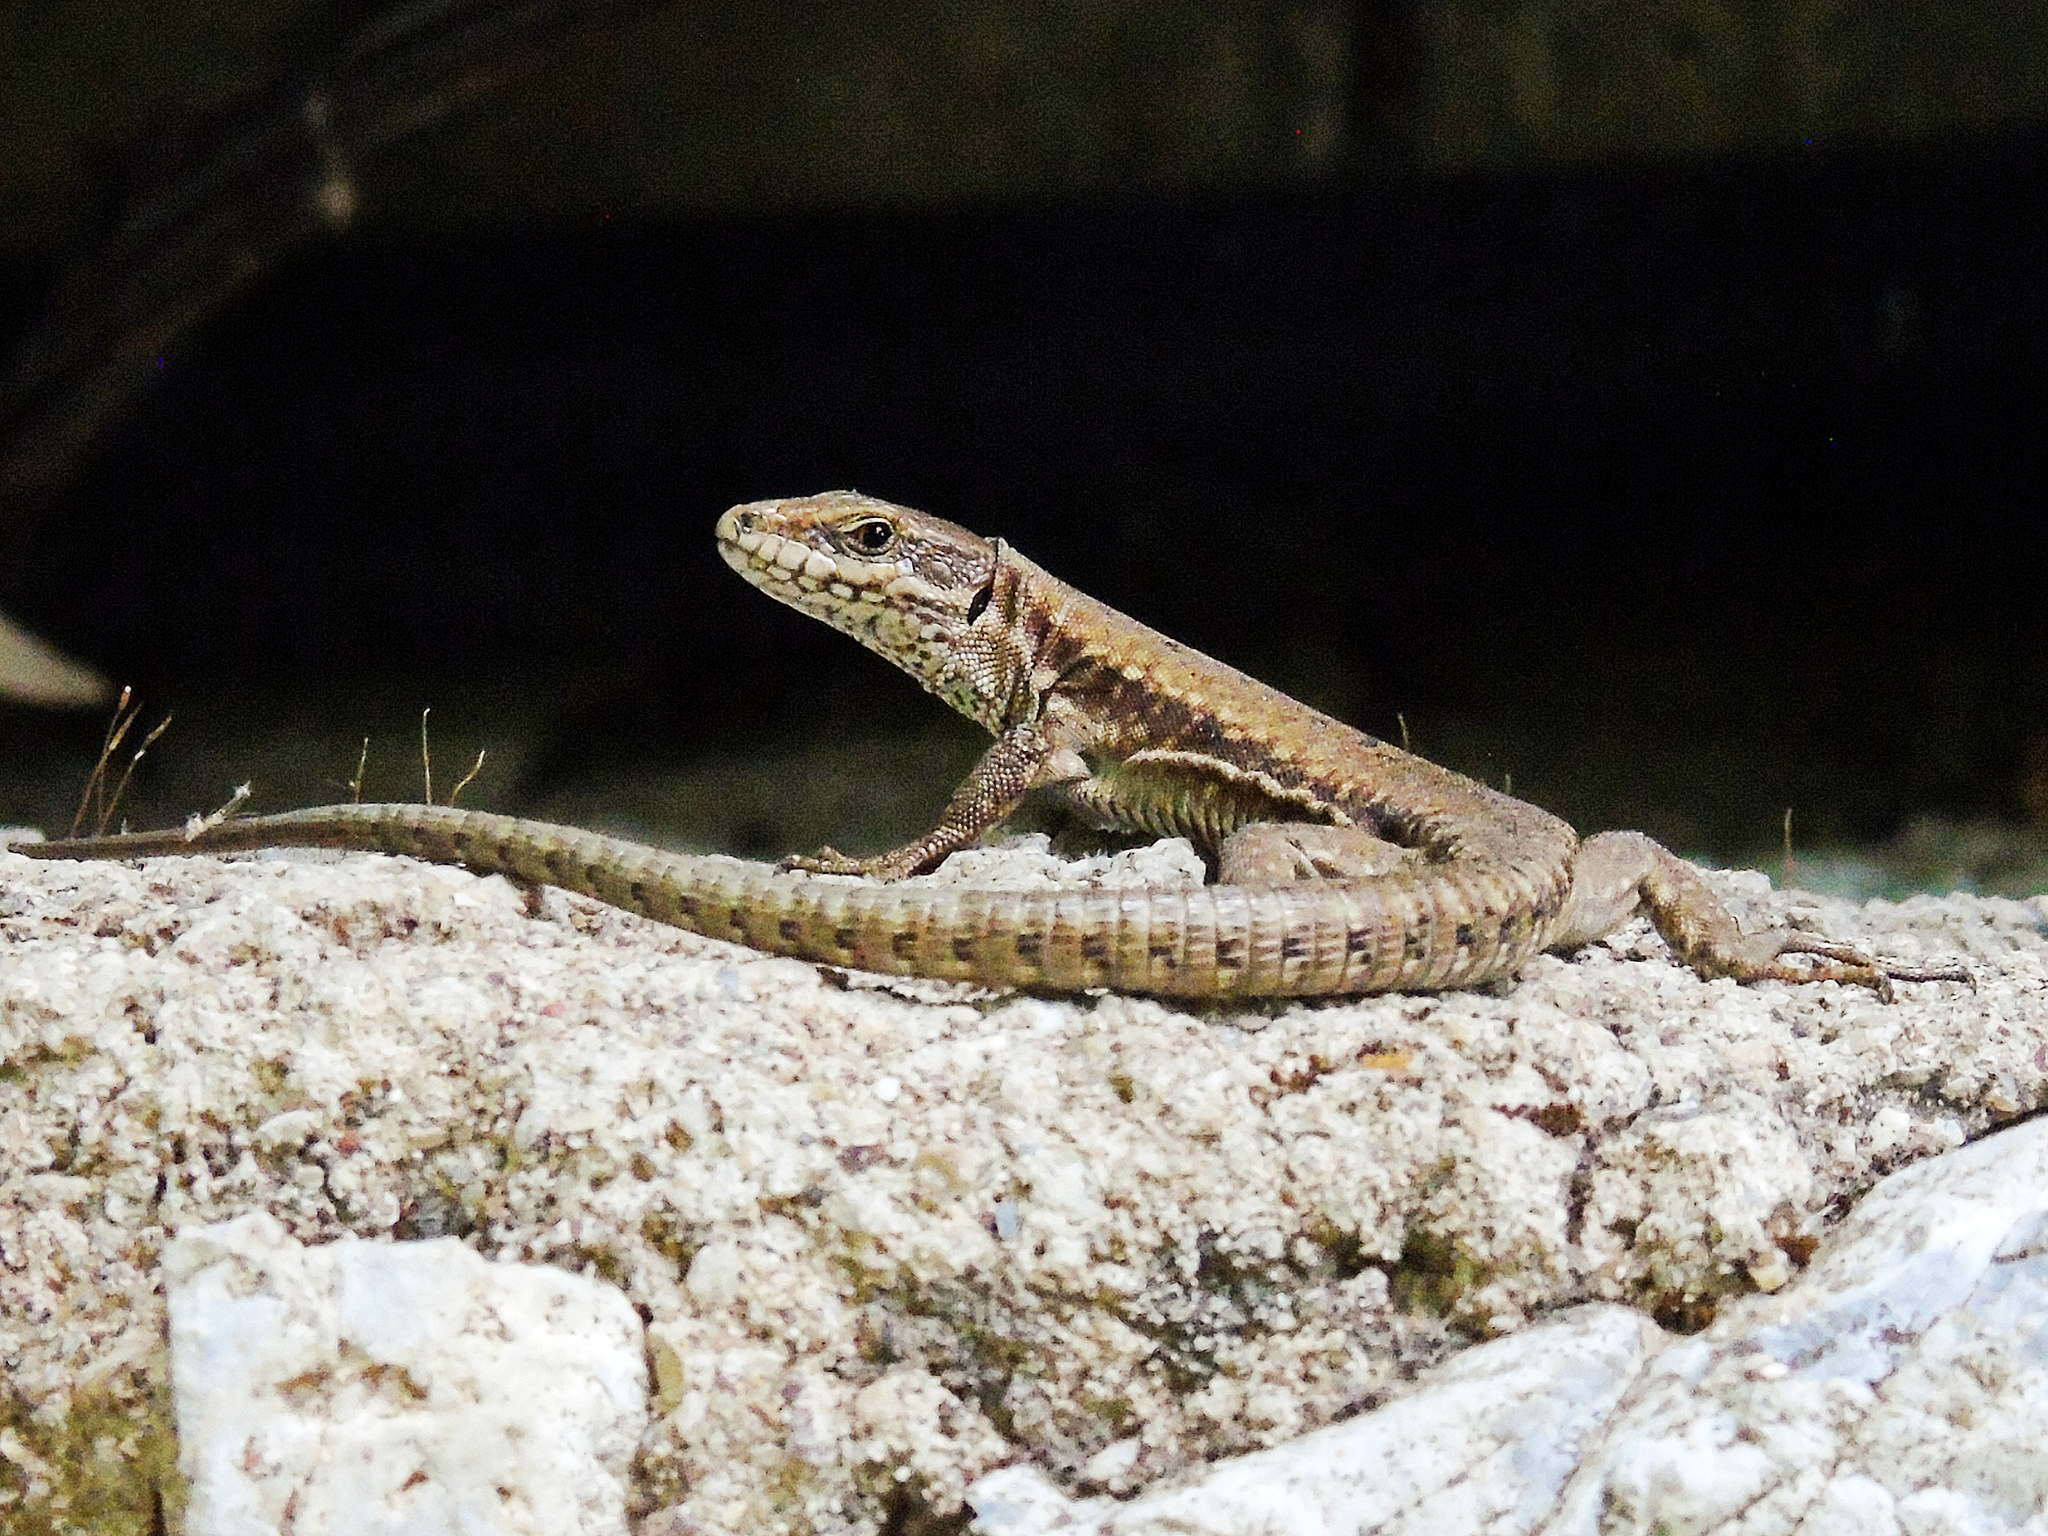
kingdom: Animalia
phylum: Chordata
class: Squamata
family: Lacertidae
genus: Podarcis
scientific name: Podarcis muralis
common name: Common wall lizard
